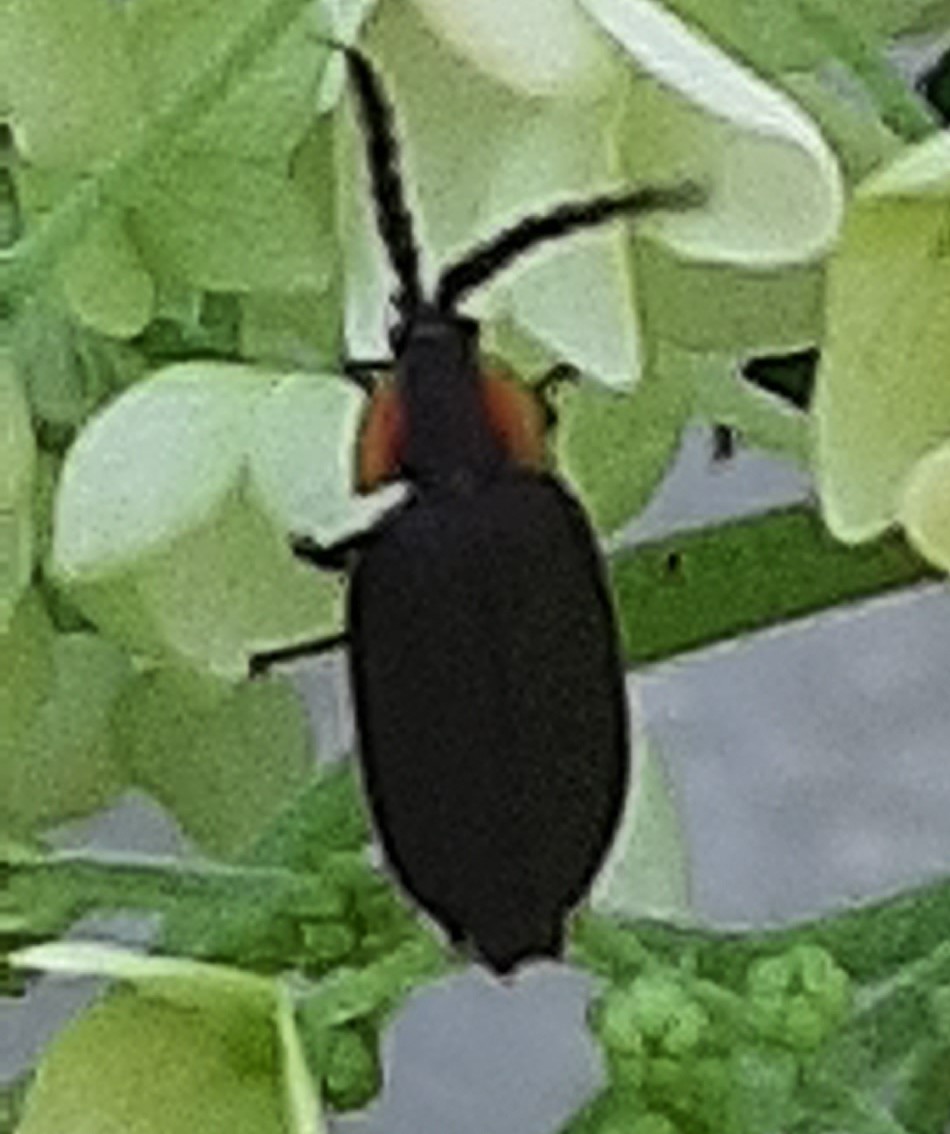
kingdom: Animalia
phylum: Arthropoda
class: Insecta
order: Coleoptera
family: Lampyridae
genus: Lucidota
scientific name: Lucidota atra
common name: Black firefly
